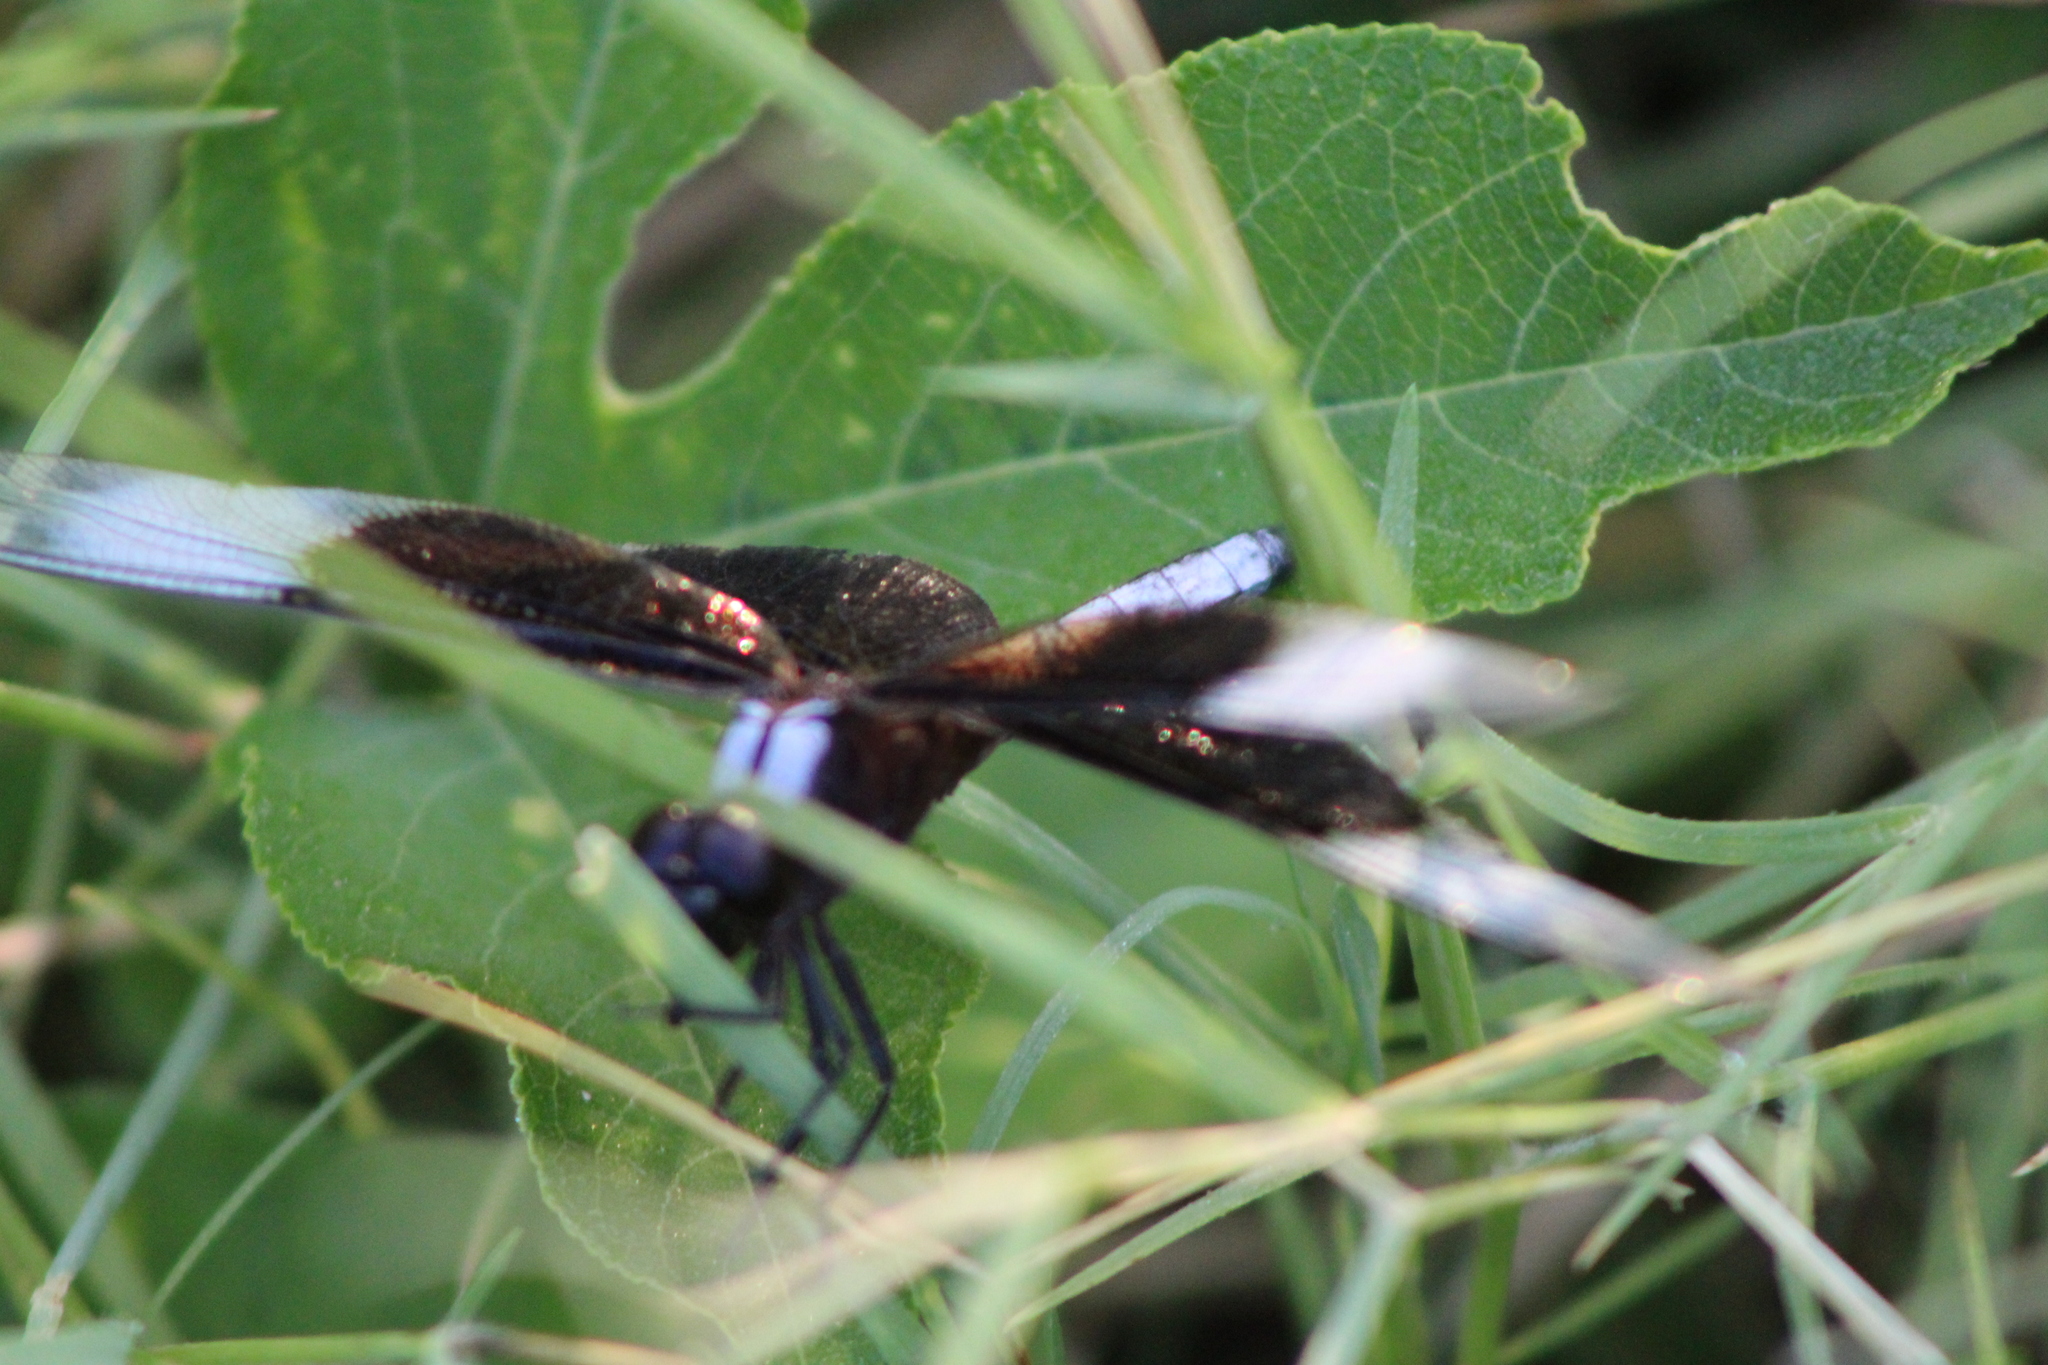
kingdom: Animalia
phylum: Arthropoda
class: Insecta
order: Odonata
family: Libellulidae
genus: Libellula
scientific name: Libellula luctuosa
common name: Widow skimmer
